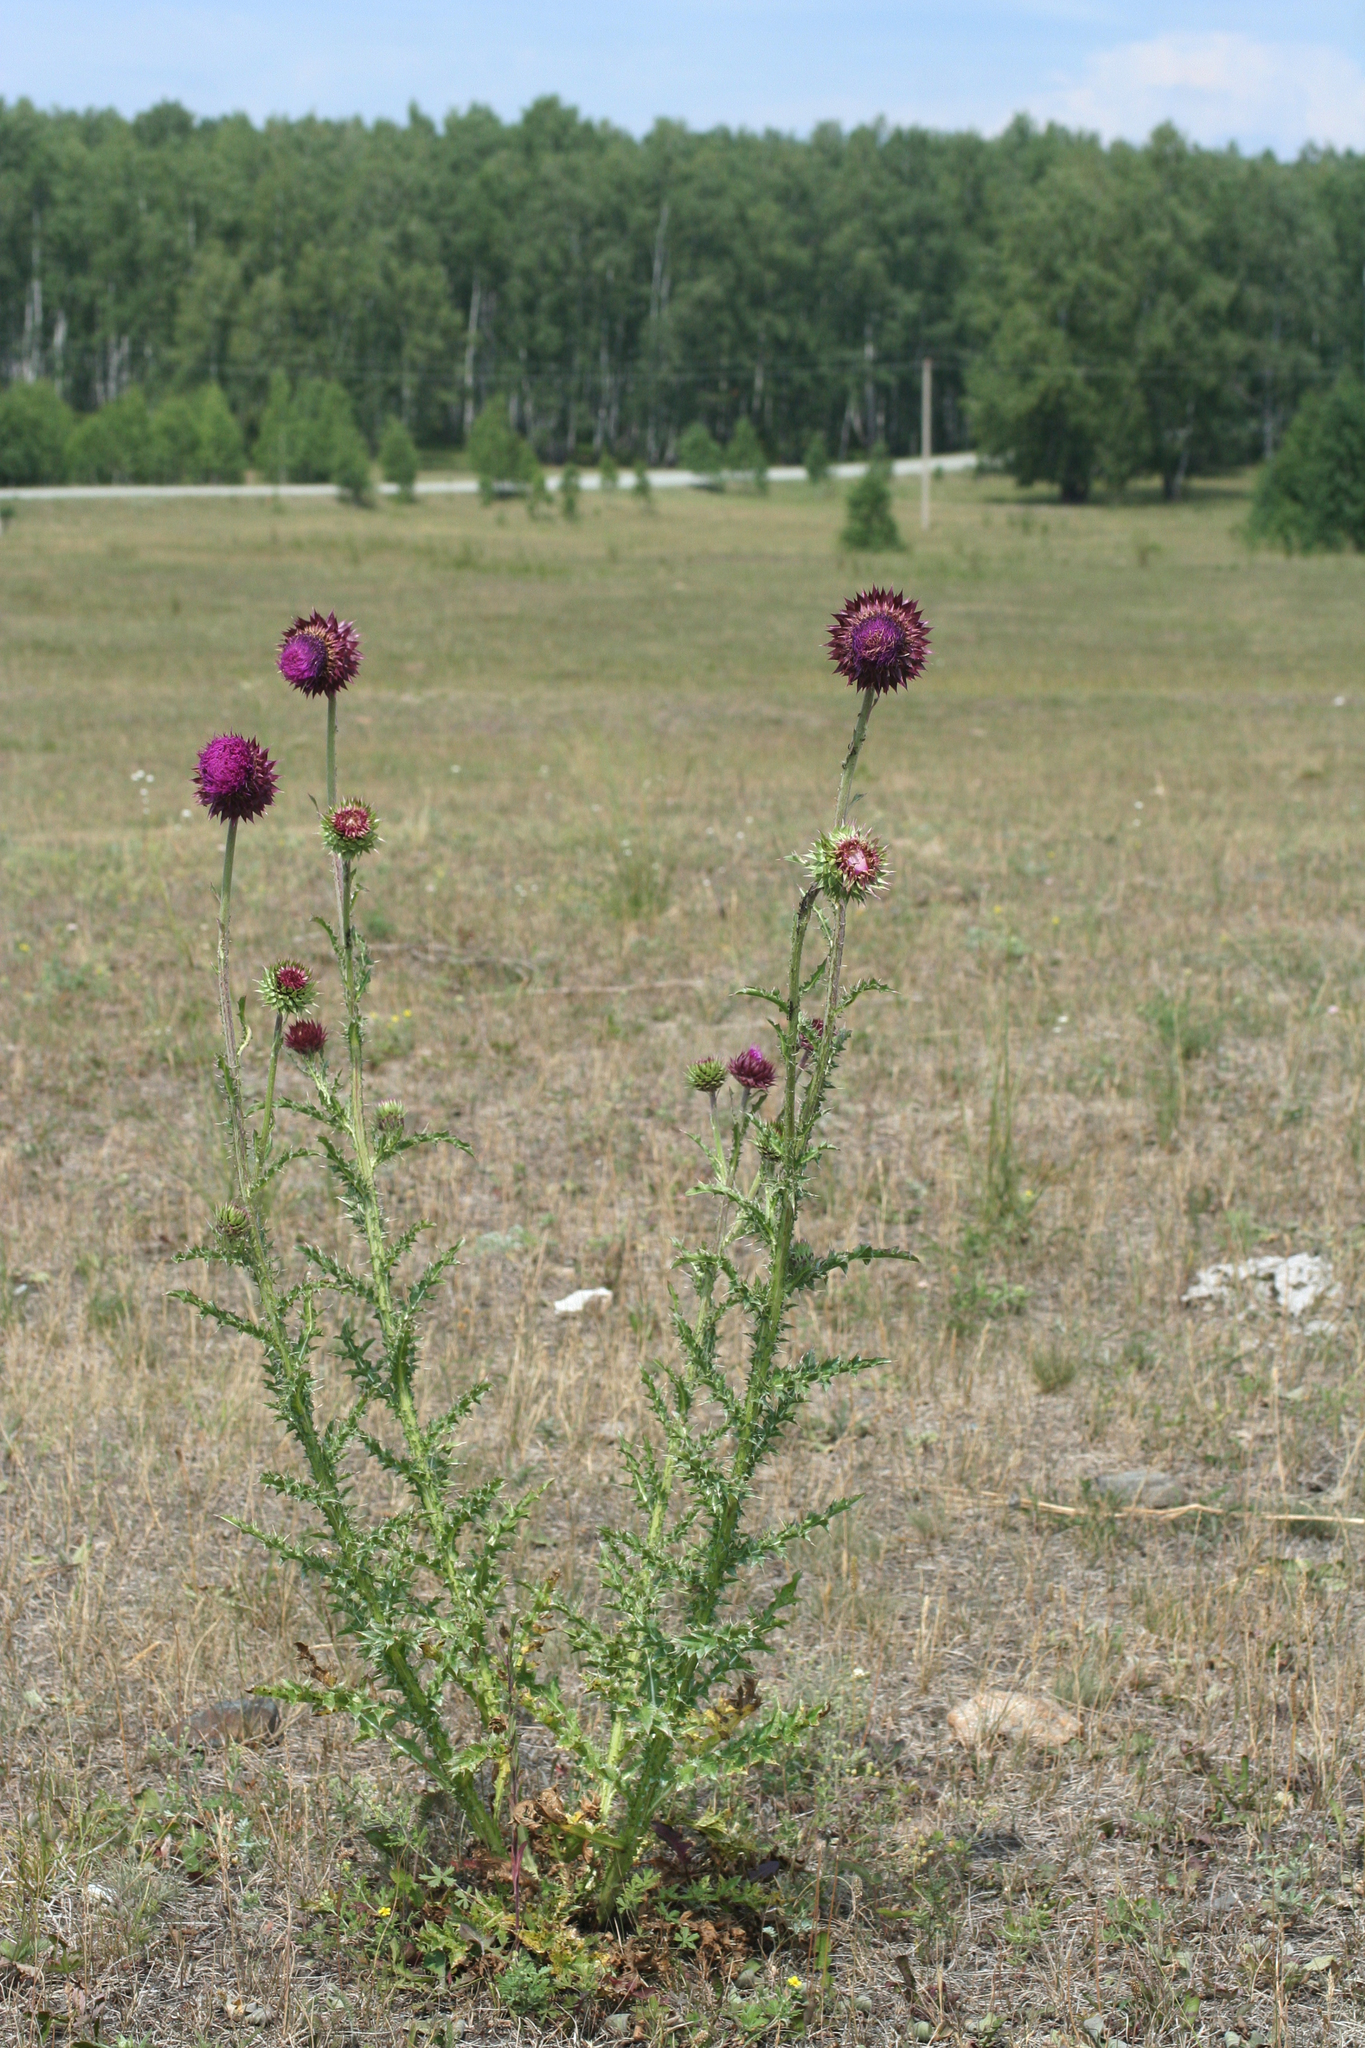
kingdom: Plantae
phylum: Tracheophyta
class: Magnoliopsida
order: Asterales
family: Asteraceae
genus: Carduus
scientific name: Carduus nutans
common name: Musk thistle
